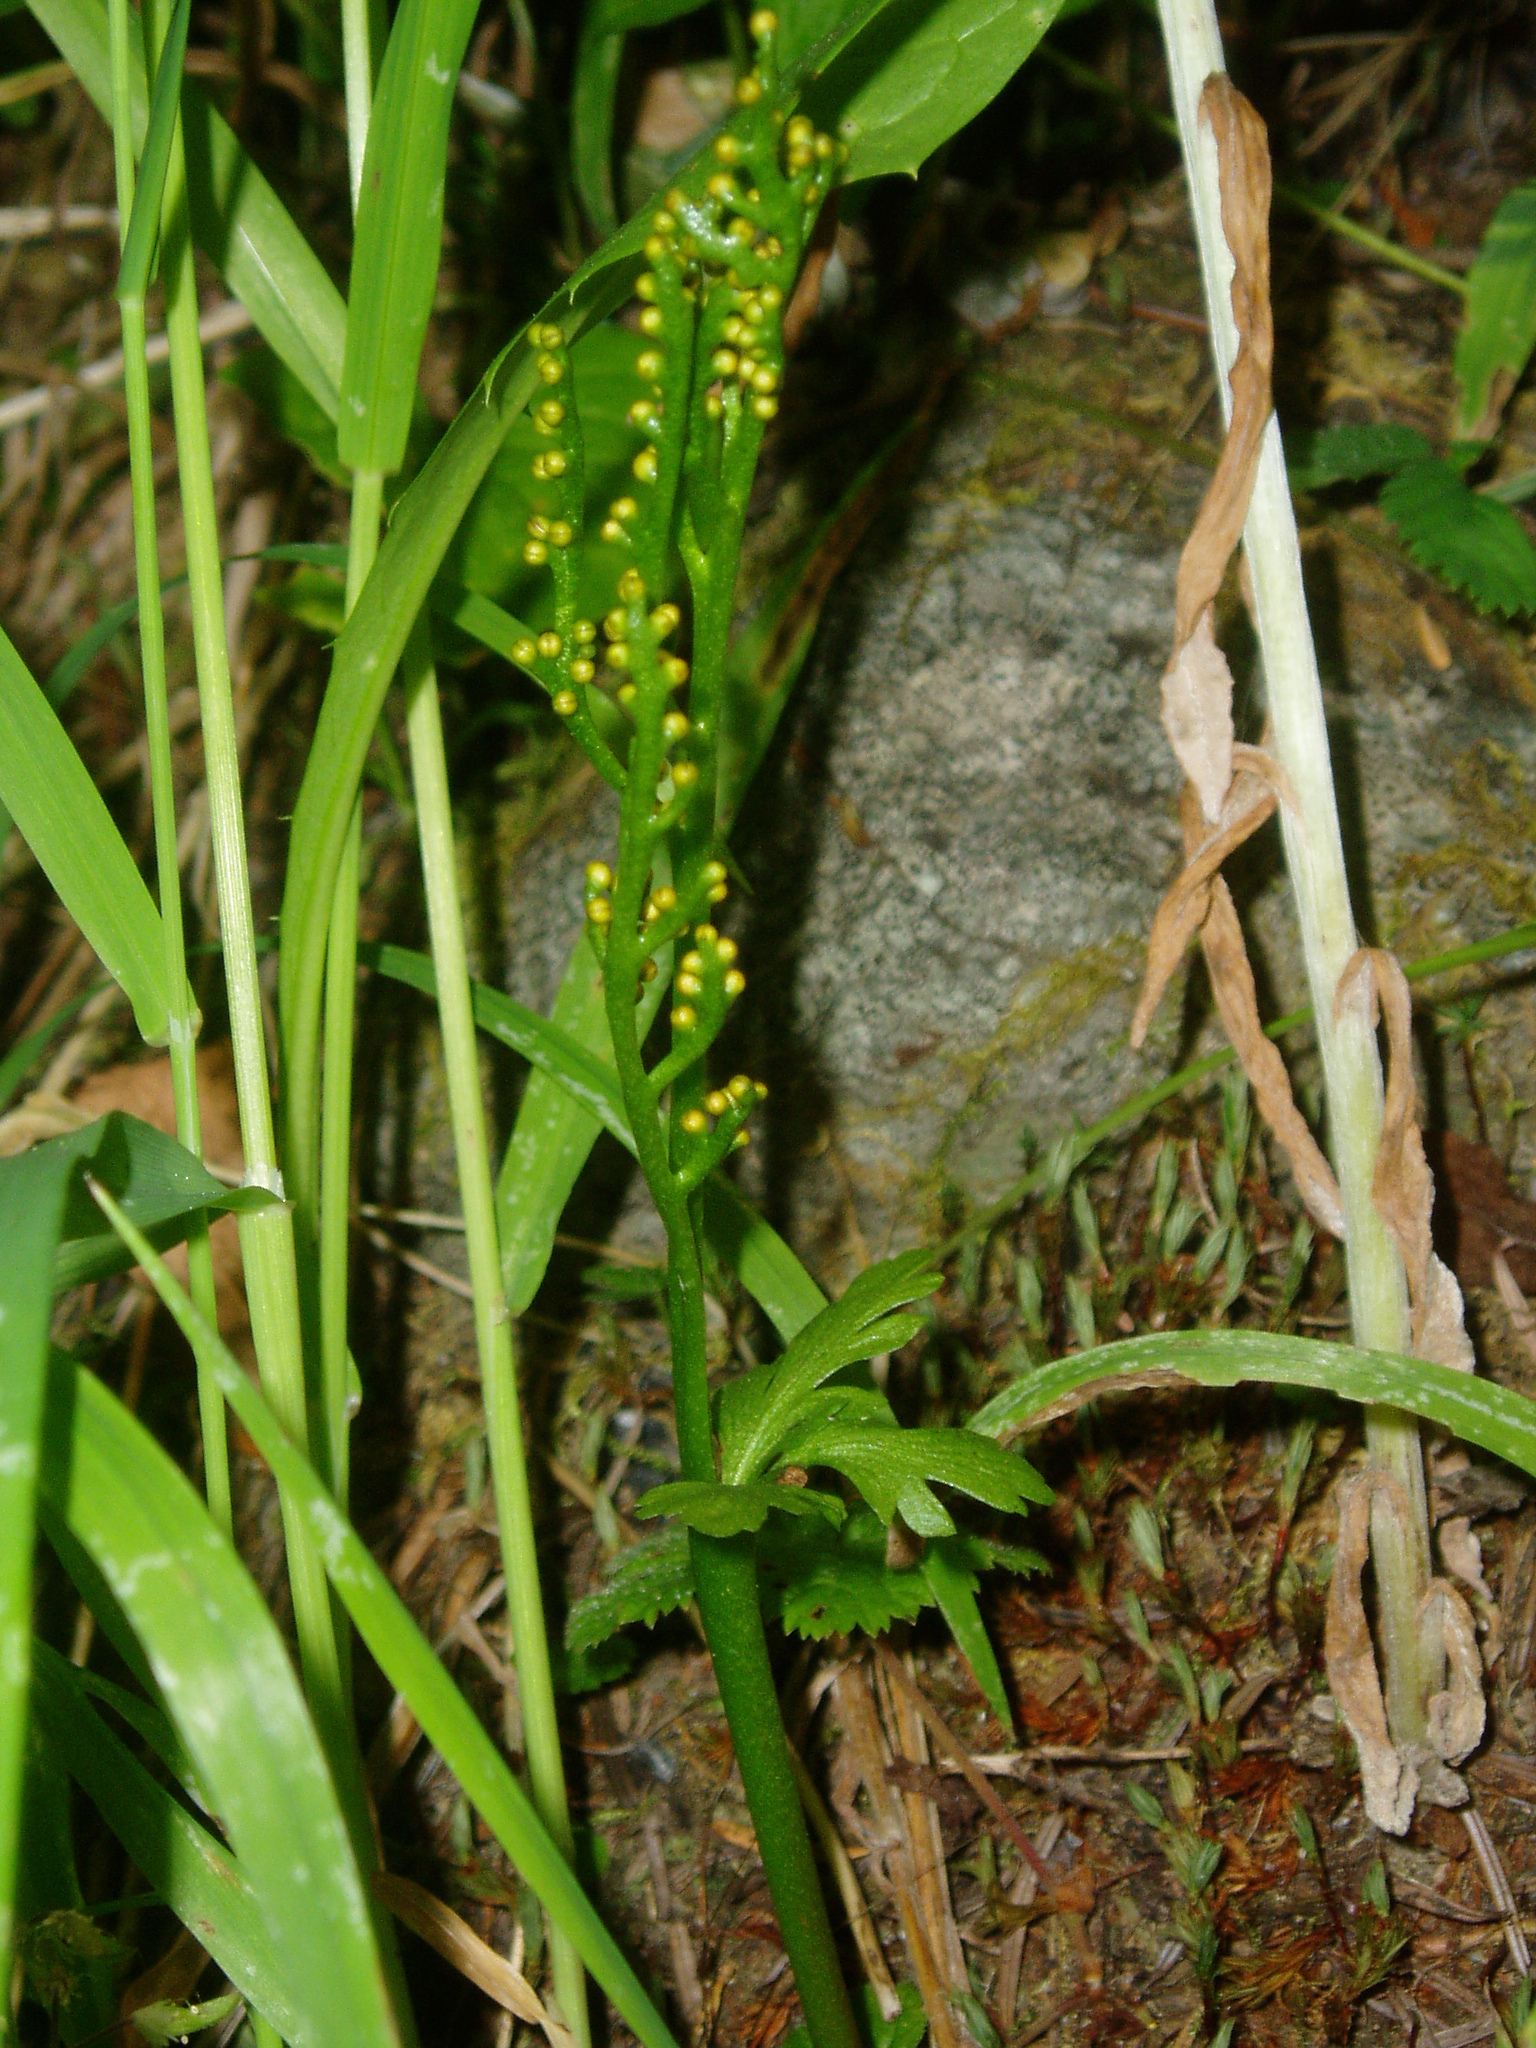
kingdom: Plantae
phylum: Tracheophyta
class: Polypodiopsida
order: Ophioglossales
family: Ophioglossaceae
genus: Botrychium
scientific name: Botrychium lanceolatum
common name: Lance-leaved moonwort
